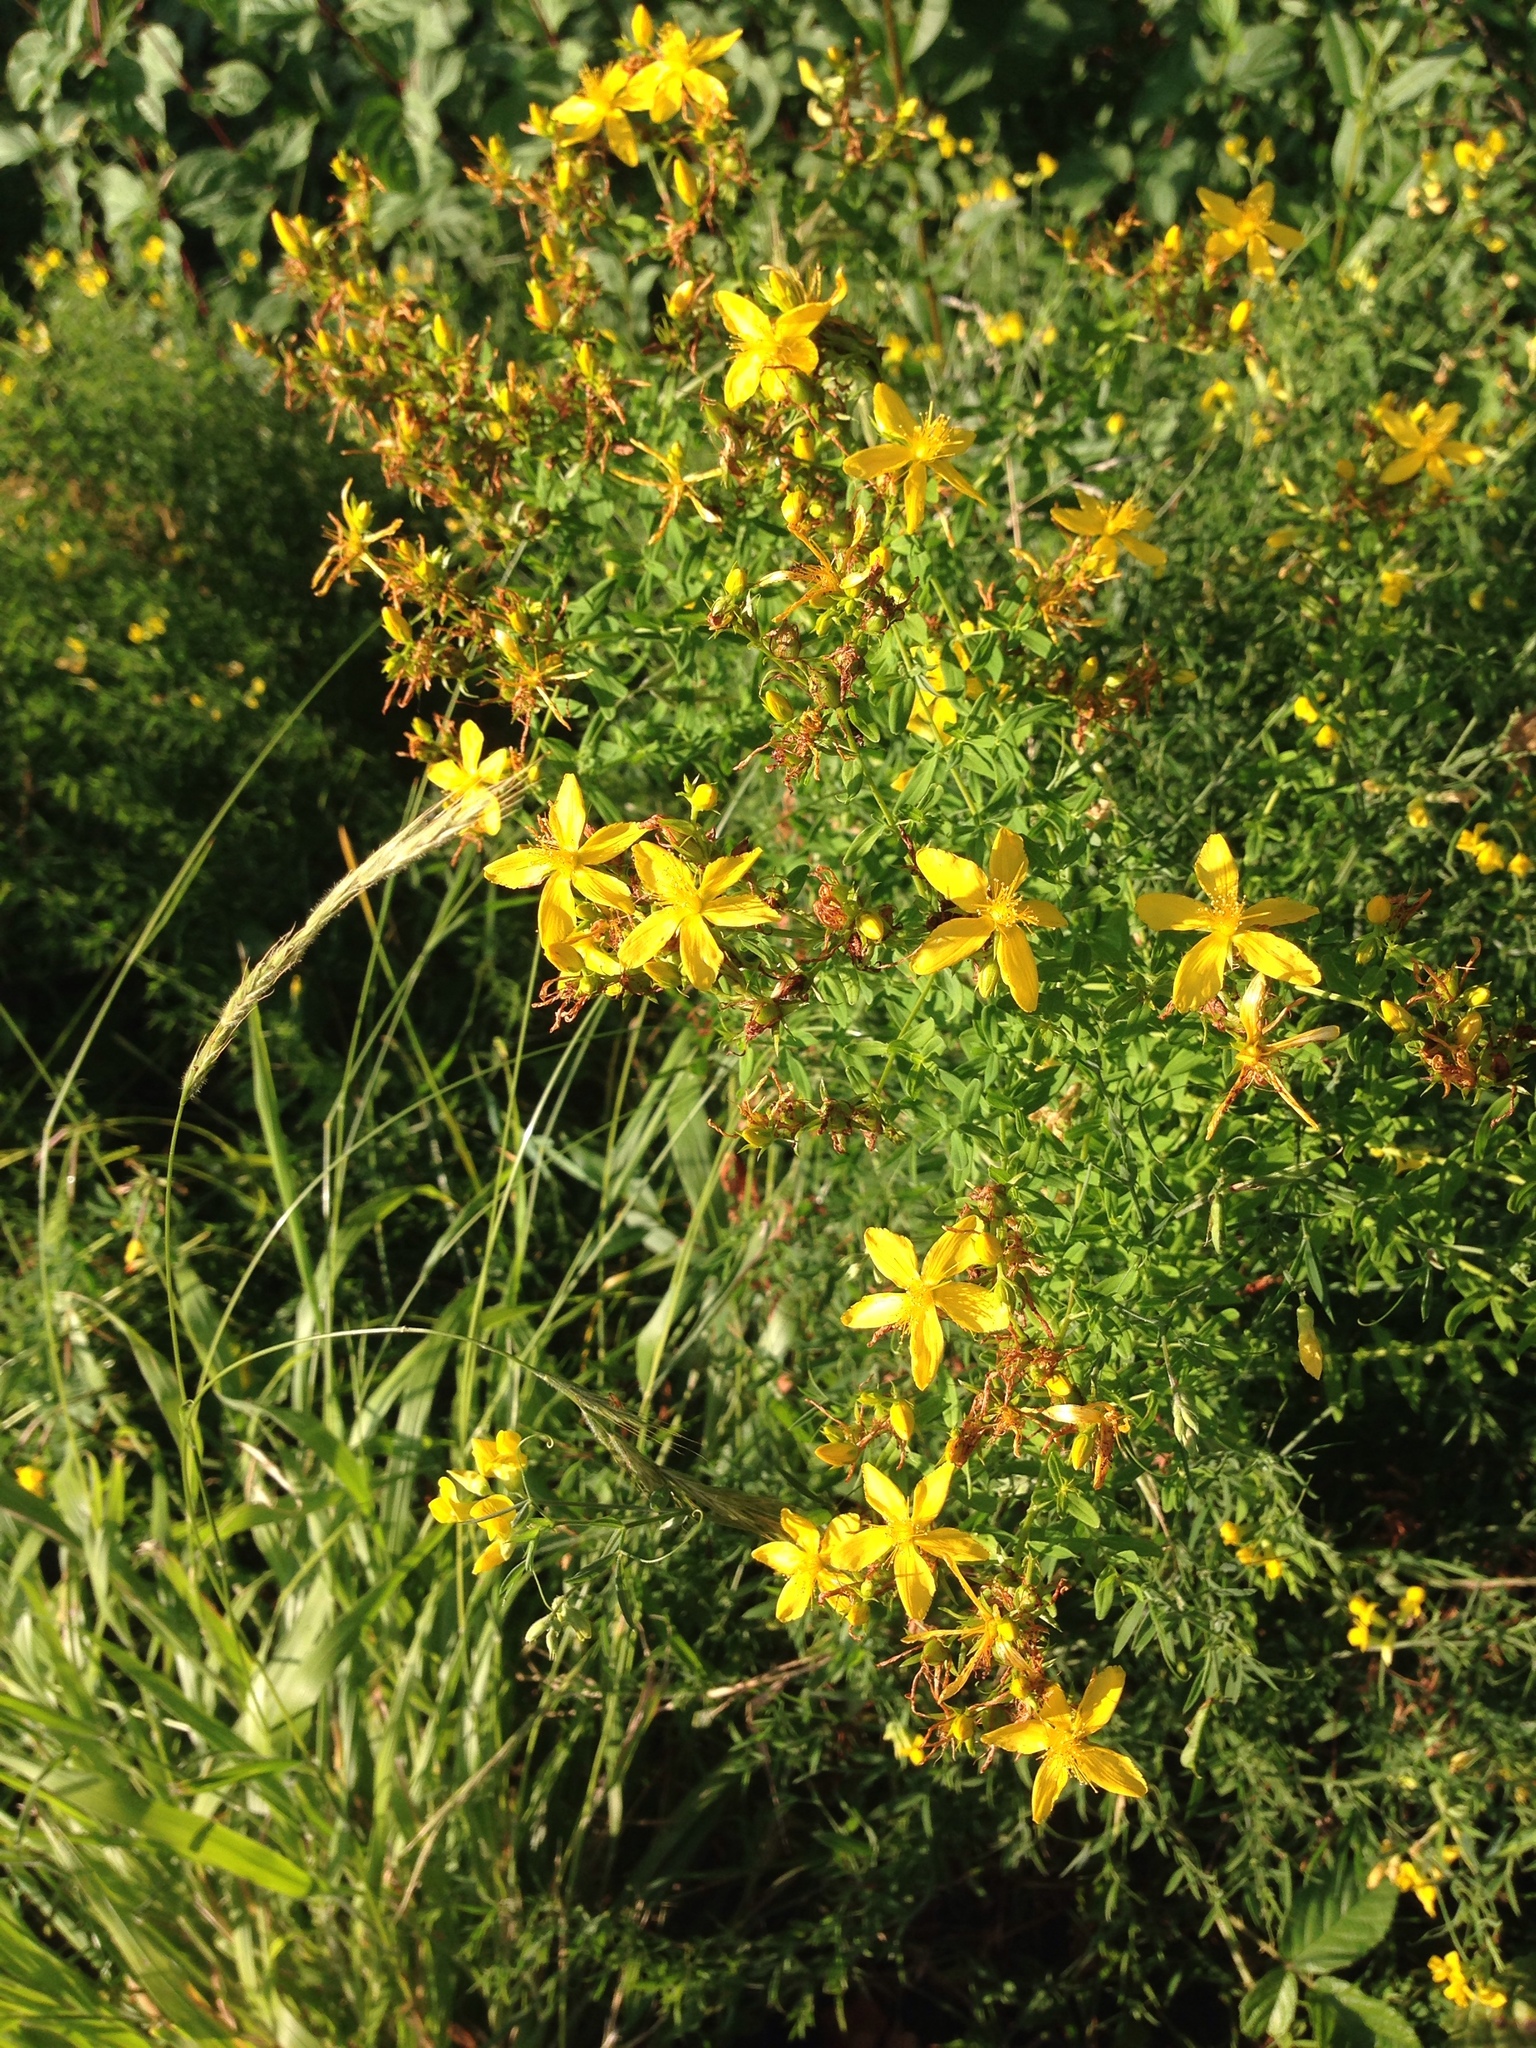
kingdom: Plantae
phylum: Tracheophyta
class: Magnoliopsida
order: Malpighiales
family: Hypericaceae
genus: Hypericum
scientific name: Hypericum perforatum
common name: Common st. johnswort
